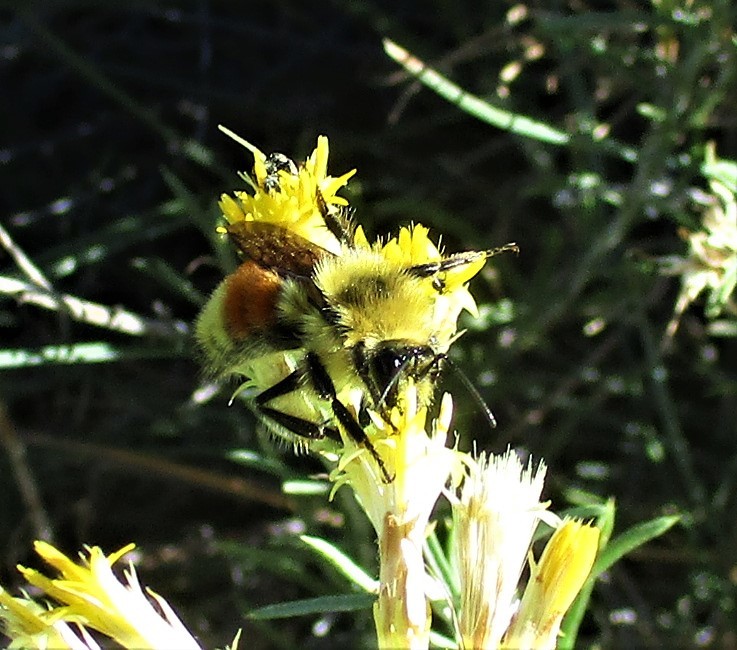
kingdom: Animalia
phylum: Arthropoda
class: Insecta
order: Hymenoptera
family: Apidae
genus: Bombus
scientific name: Bombus huntii
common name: Hunt bumble bee
